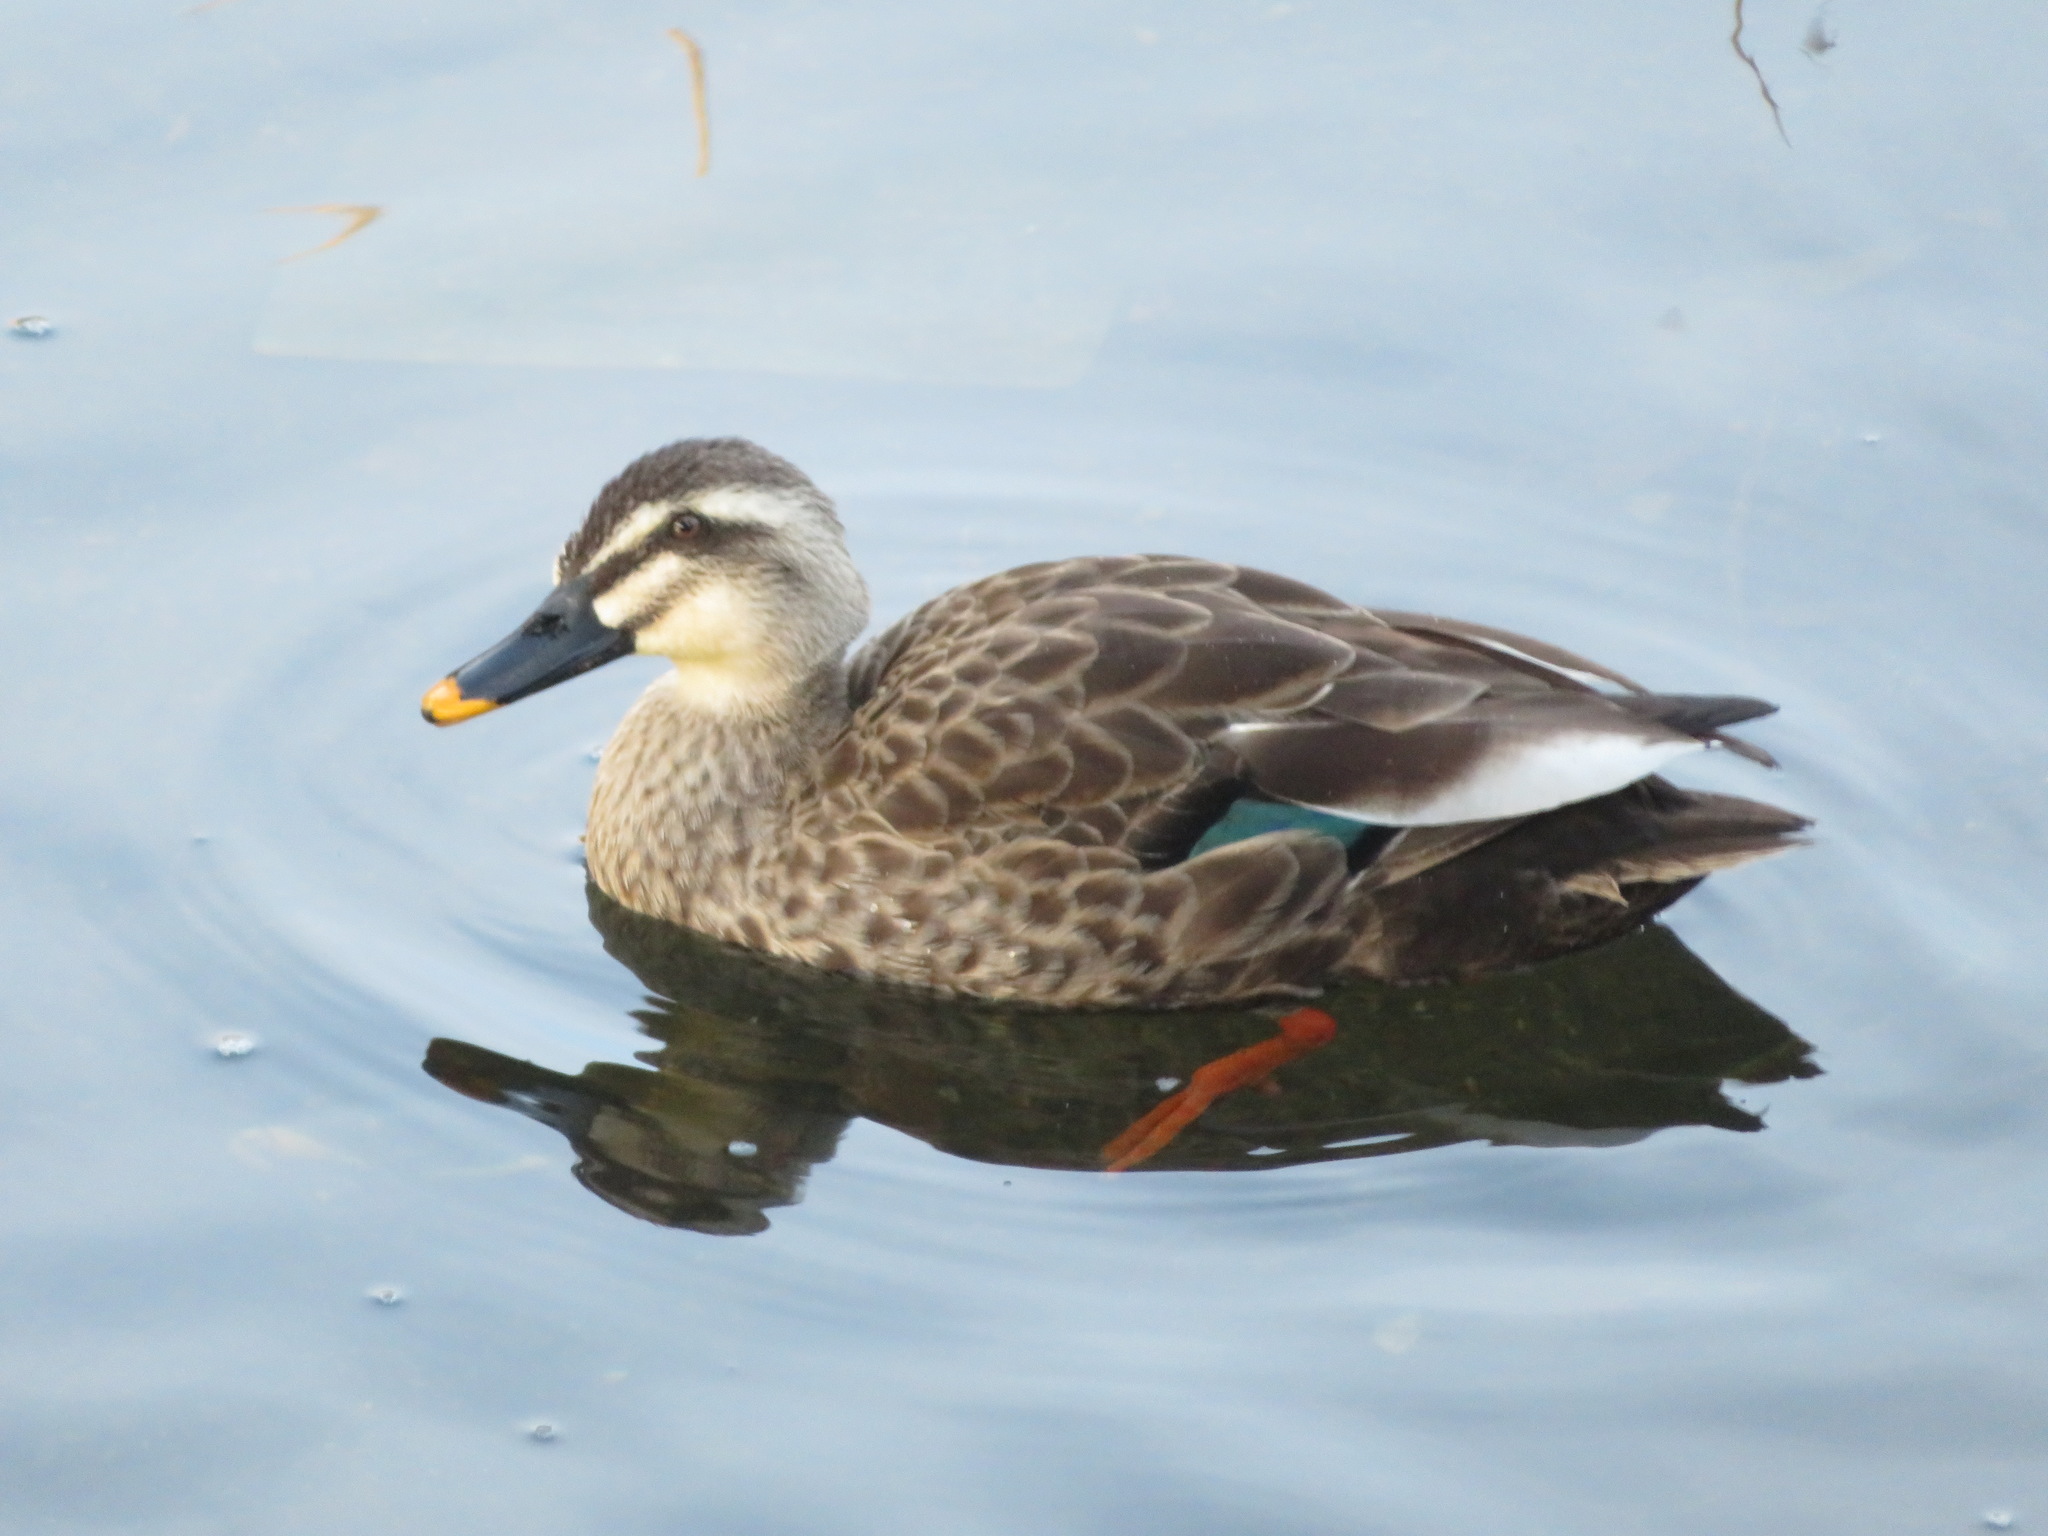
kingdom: Animalia
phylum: Chordata
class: Aves
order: Anseriformes
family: Anatidae
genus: Anas
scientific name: Anas zonorhyncha
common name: Eastern spot-billed duck
